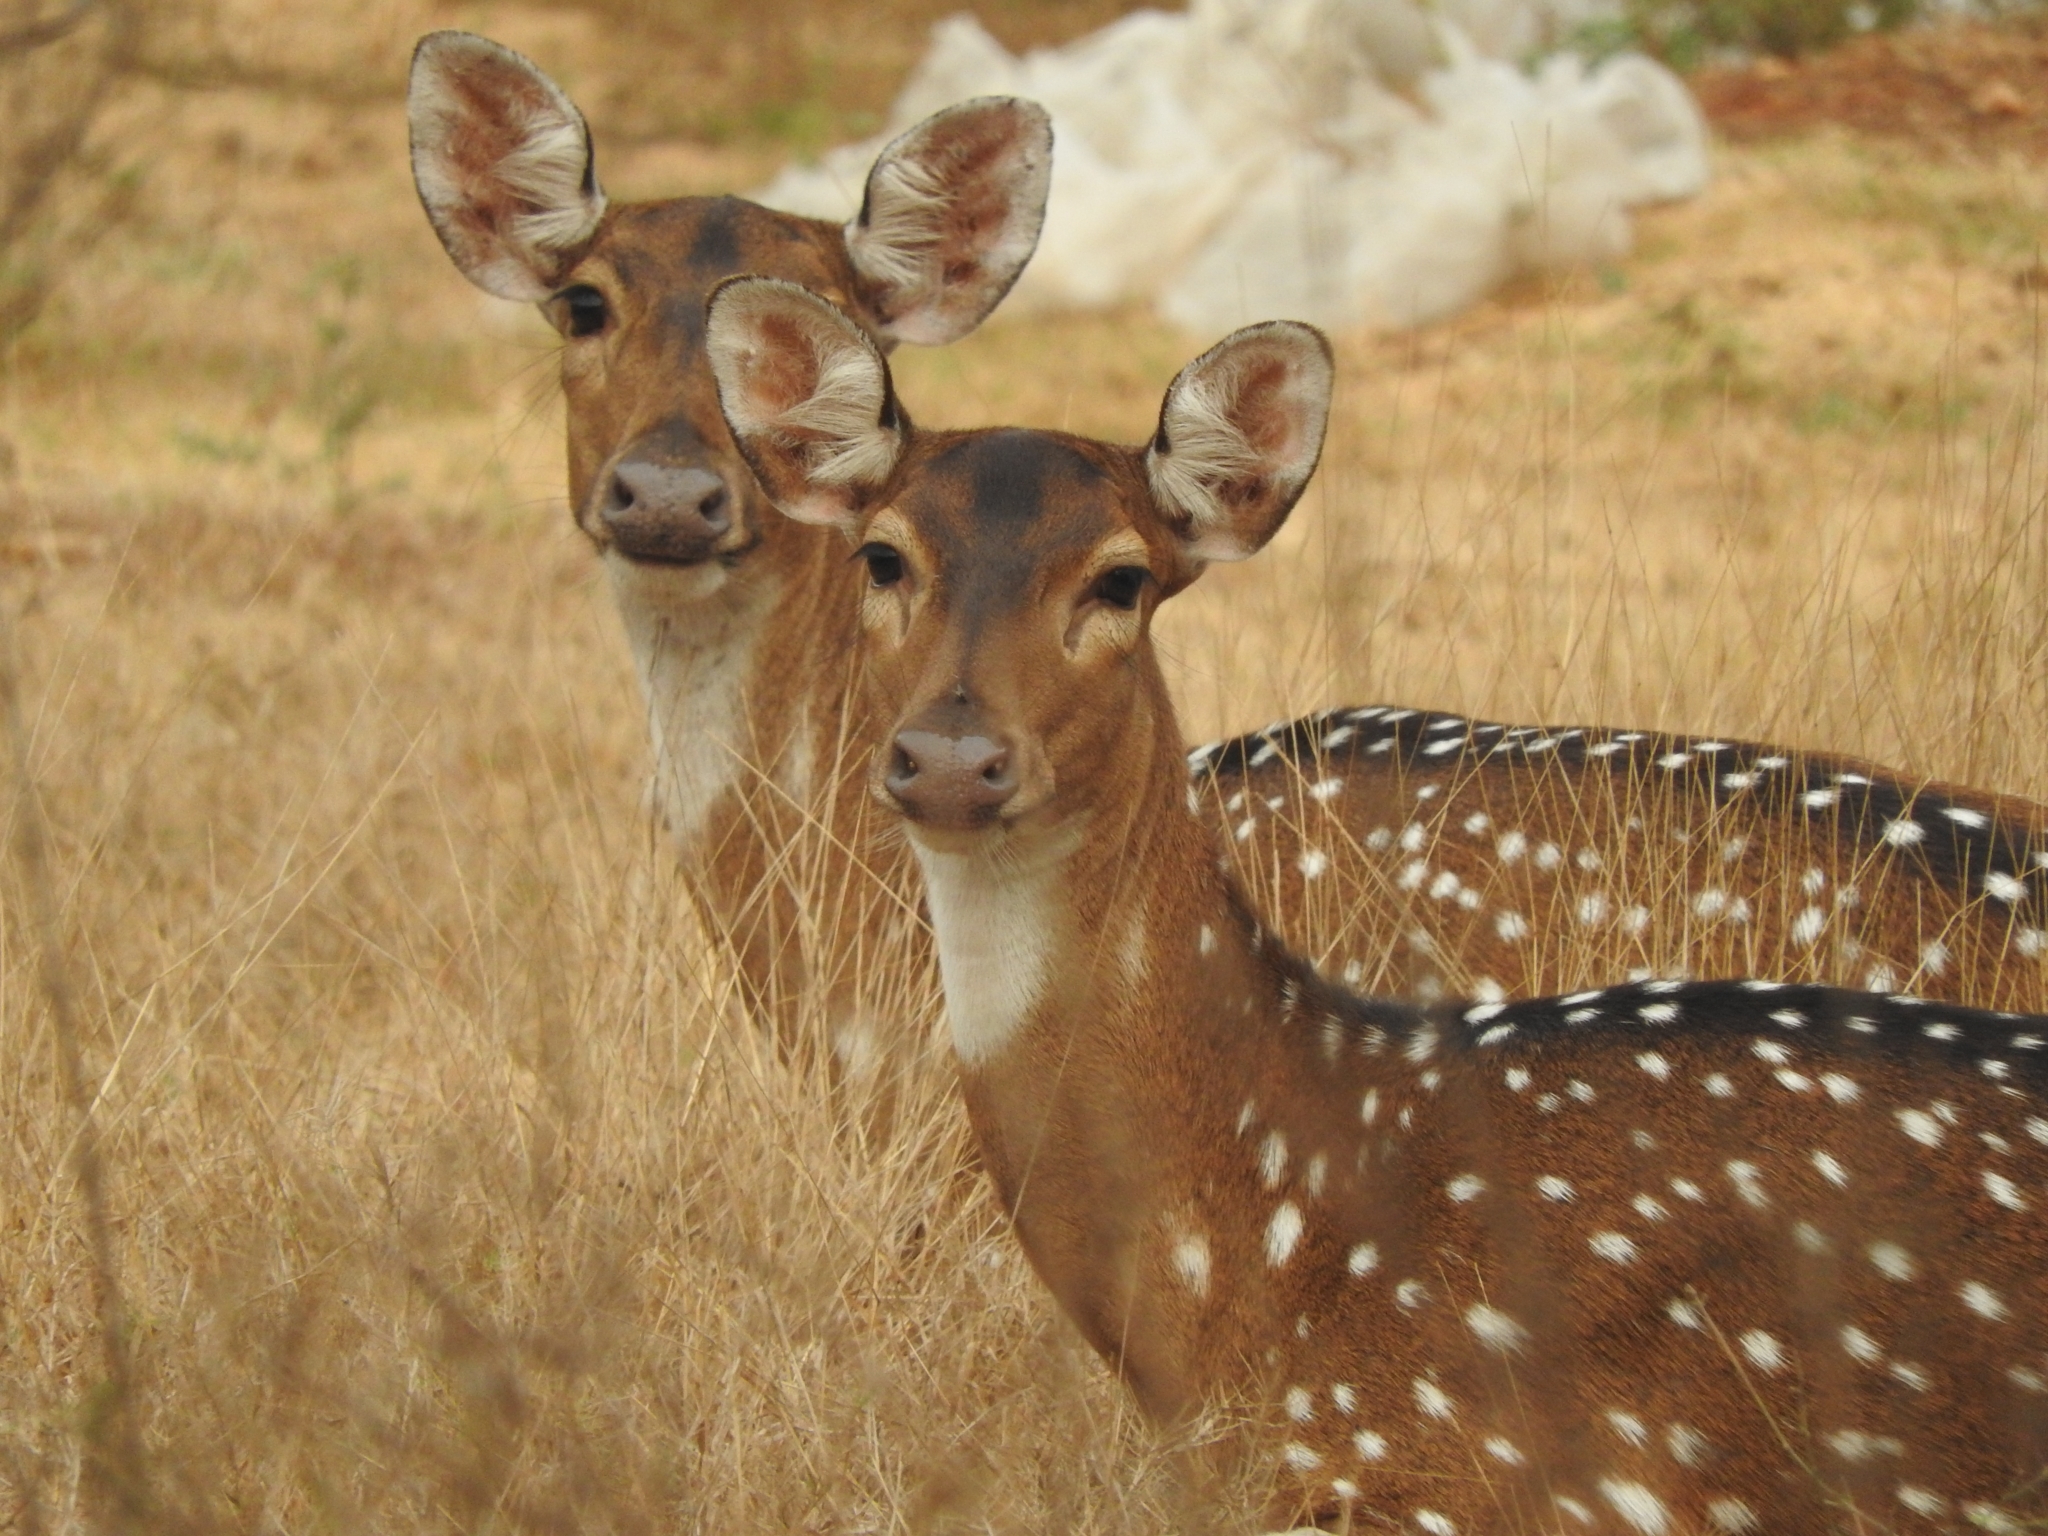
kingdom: Animalia
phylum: Chordata
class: Mammalia
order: Artiodactyla
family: Cervidae
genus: Axis
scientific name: Axis axis
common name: Chital
